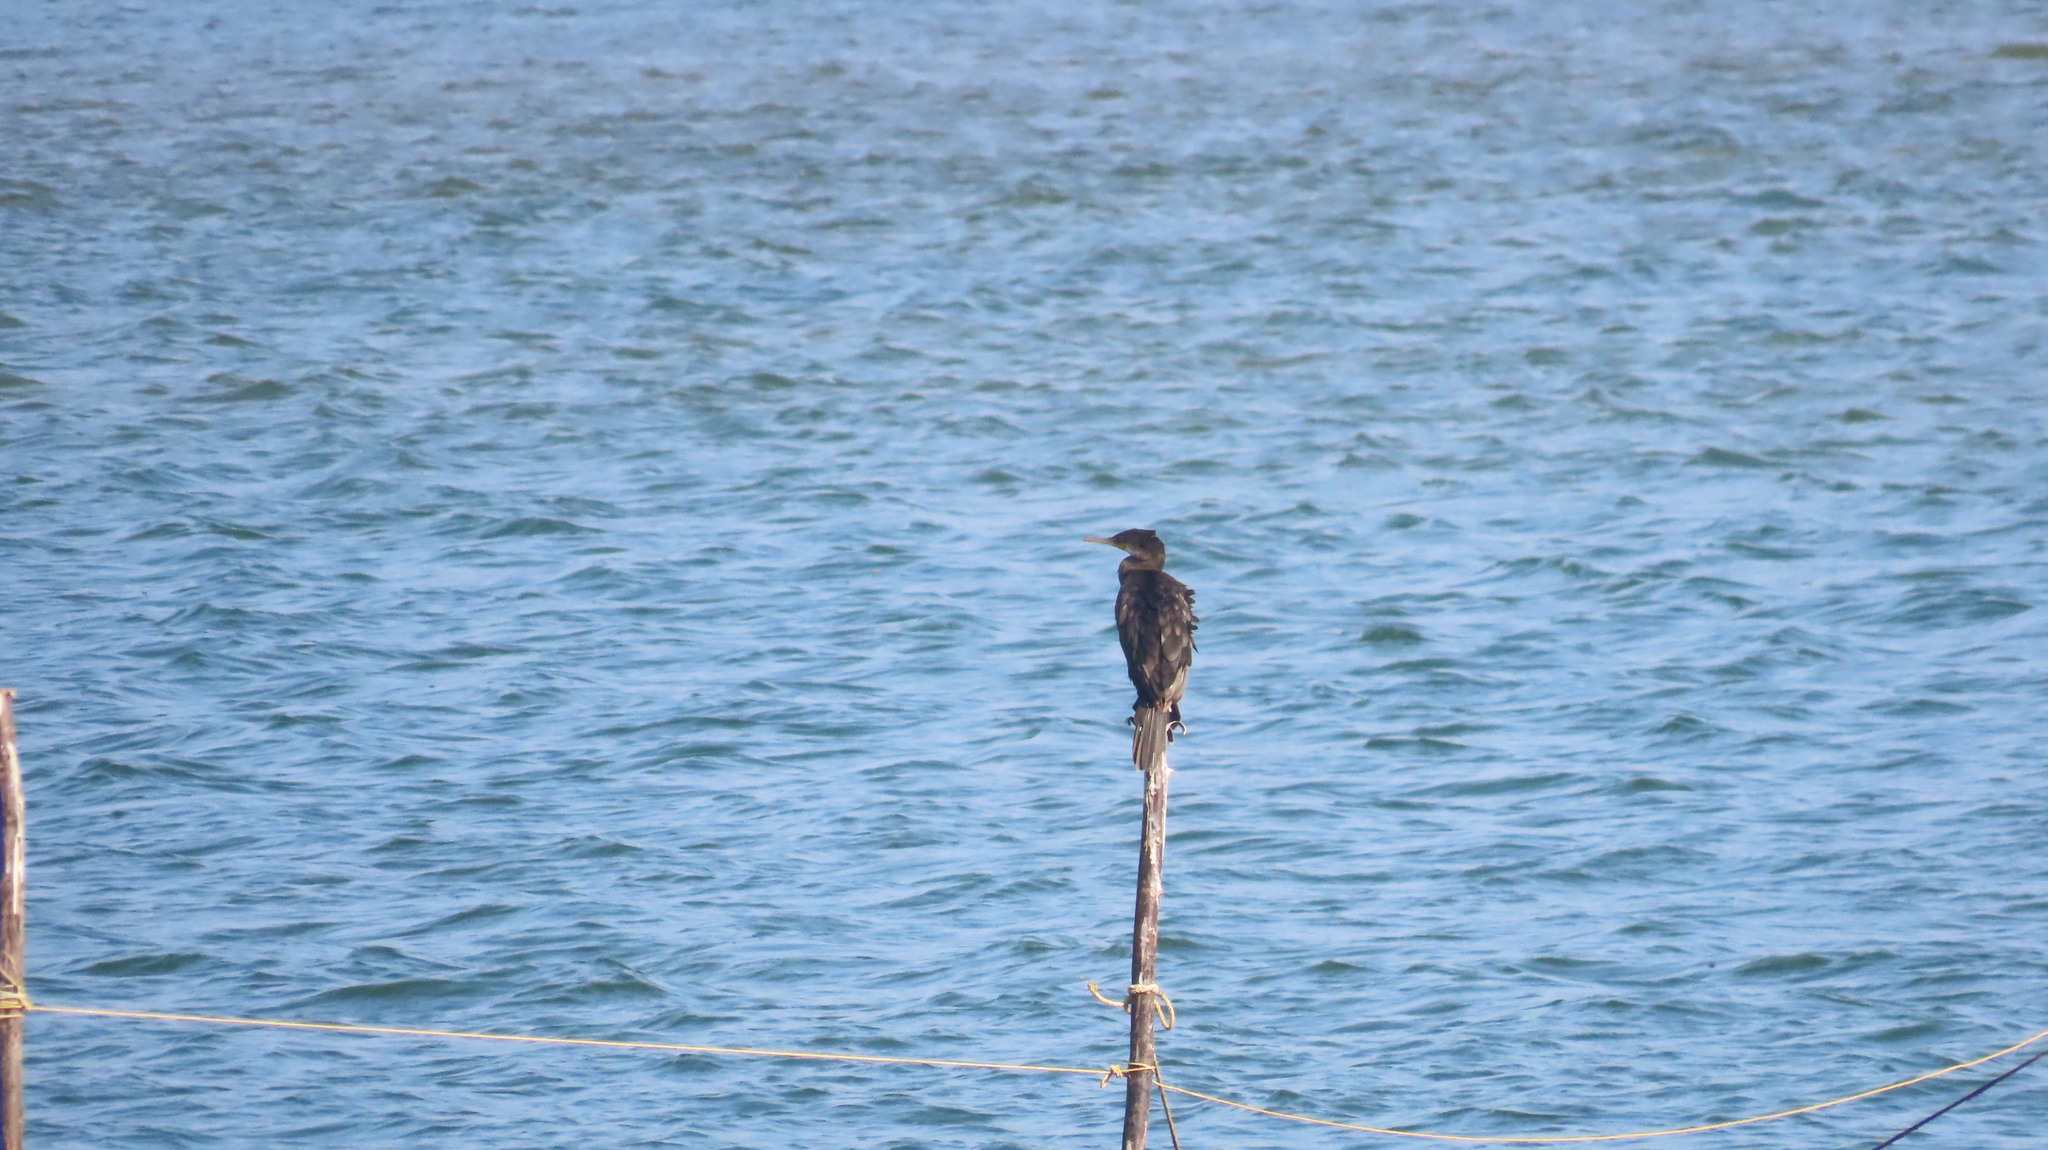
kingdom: Animalia
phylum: Chordata
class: Aves
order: Suliformes
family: Phalacrocoracidae
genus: Phalacrocorax
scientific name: Phalacrocorax fuscicollis
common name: Indian cormorant
